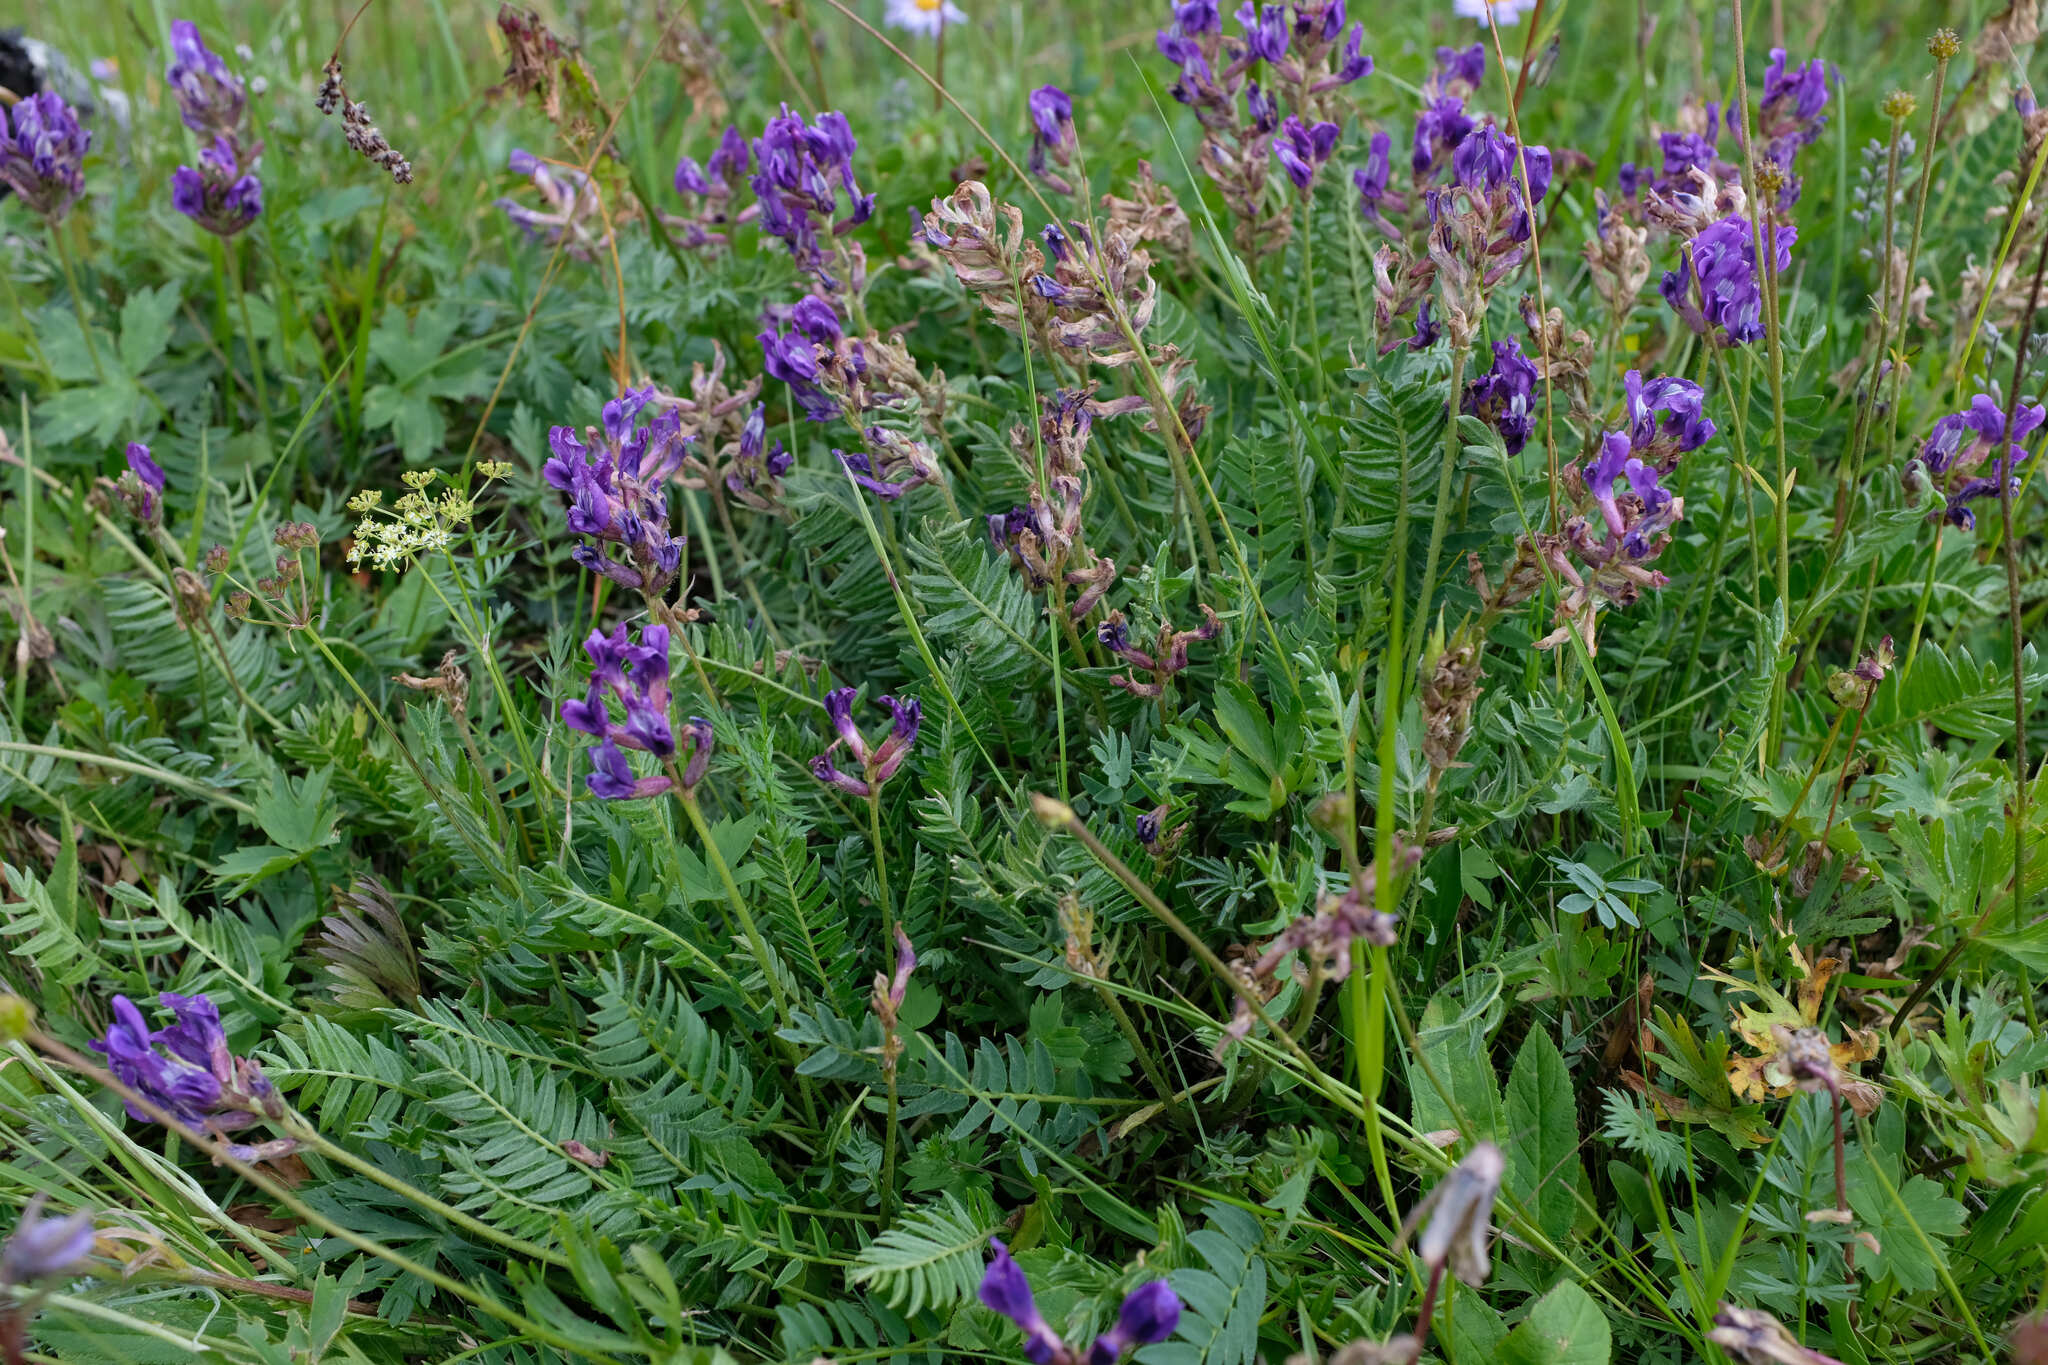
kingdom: Plantae
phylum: Tracheophyta
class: Magnoliopsida
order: Fabales
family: Fabaceae
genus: Oxytropis
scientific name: Oxytropis lazica
